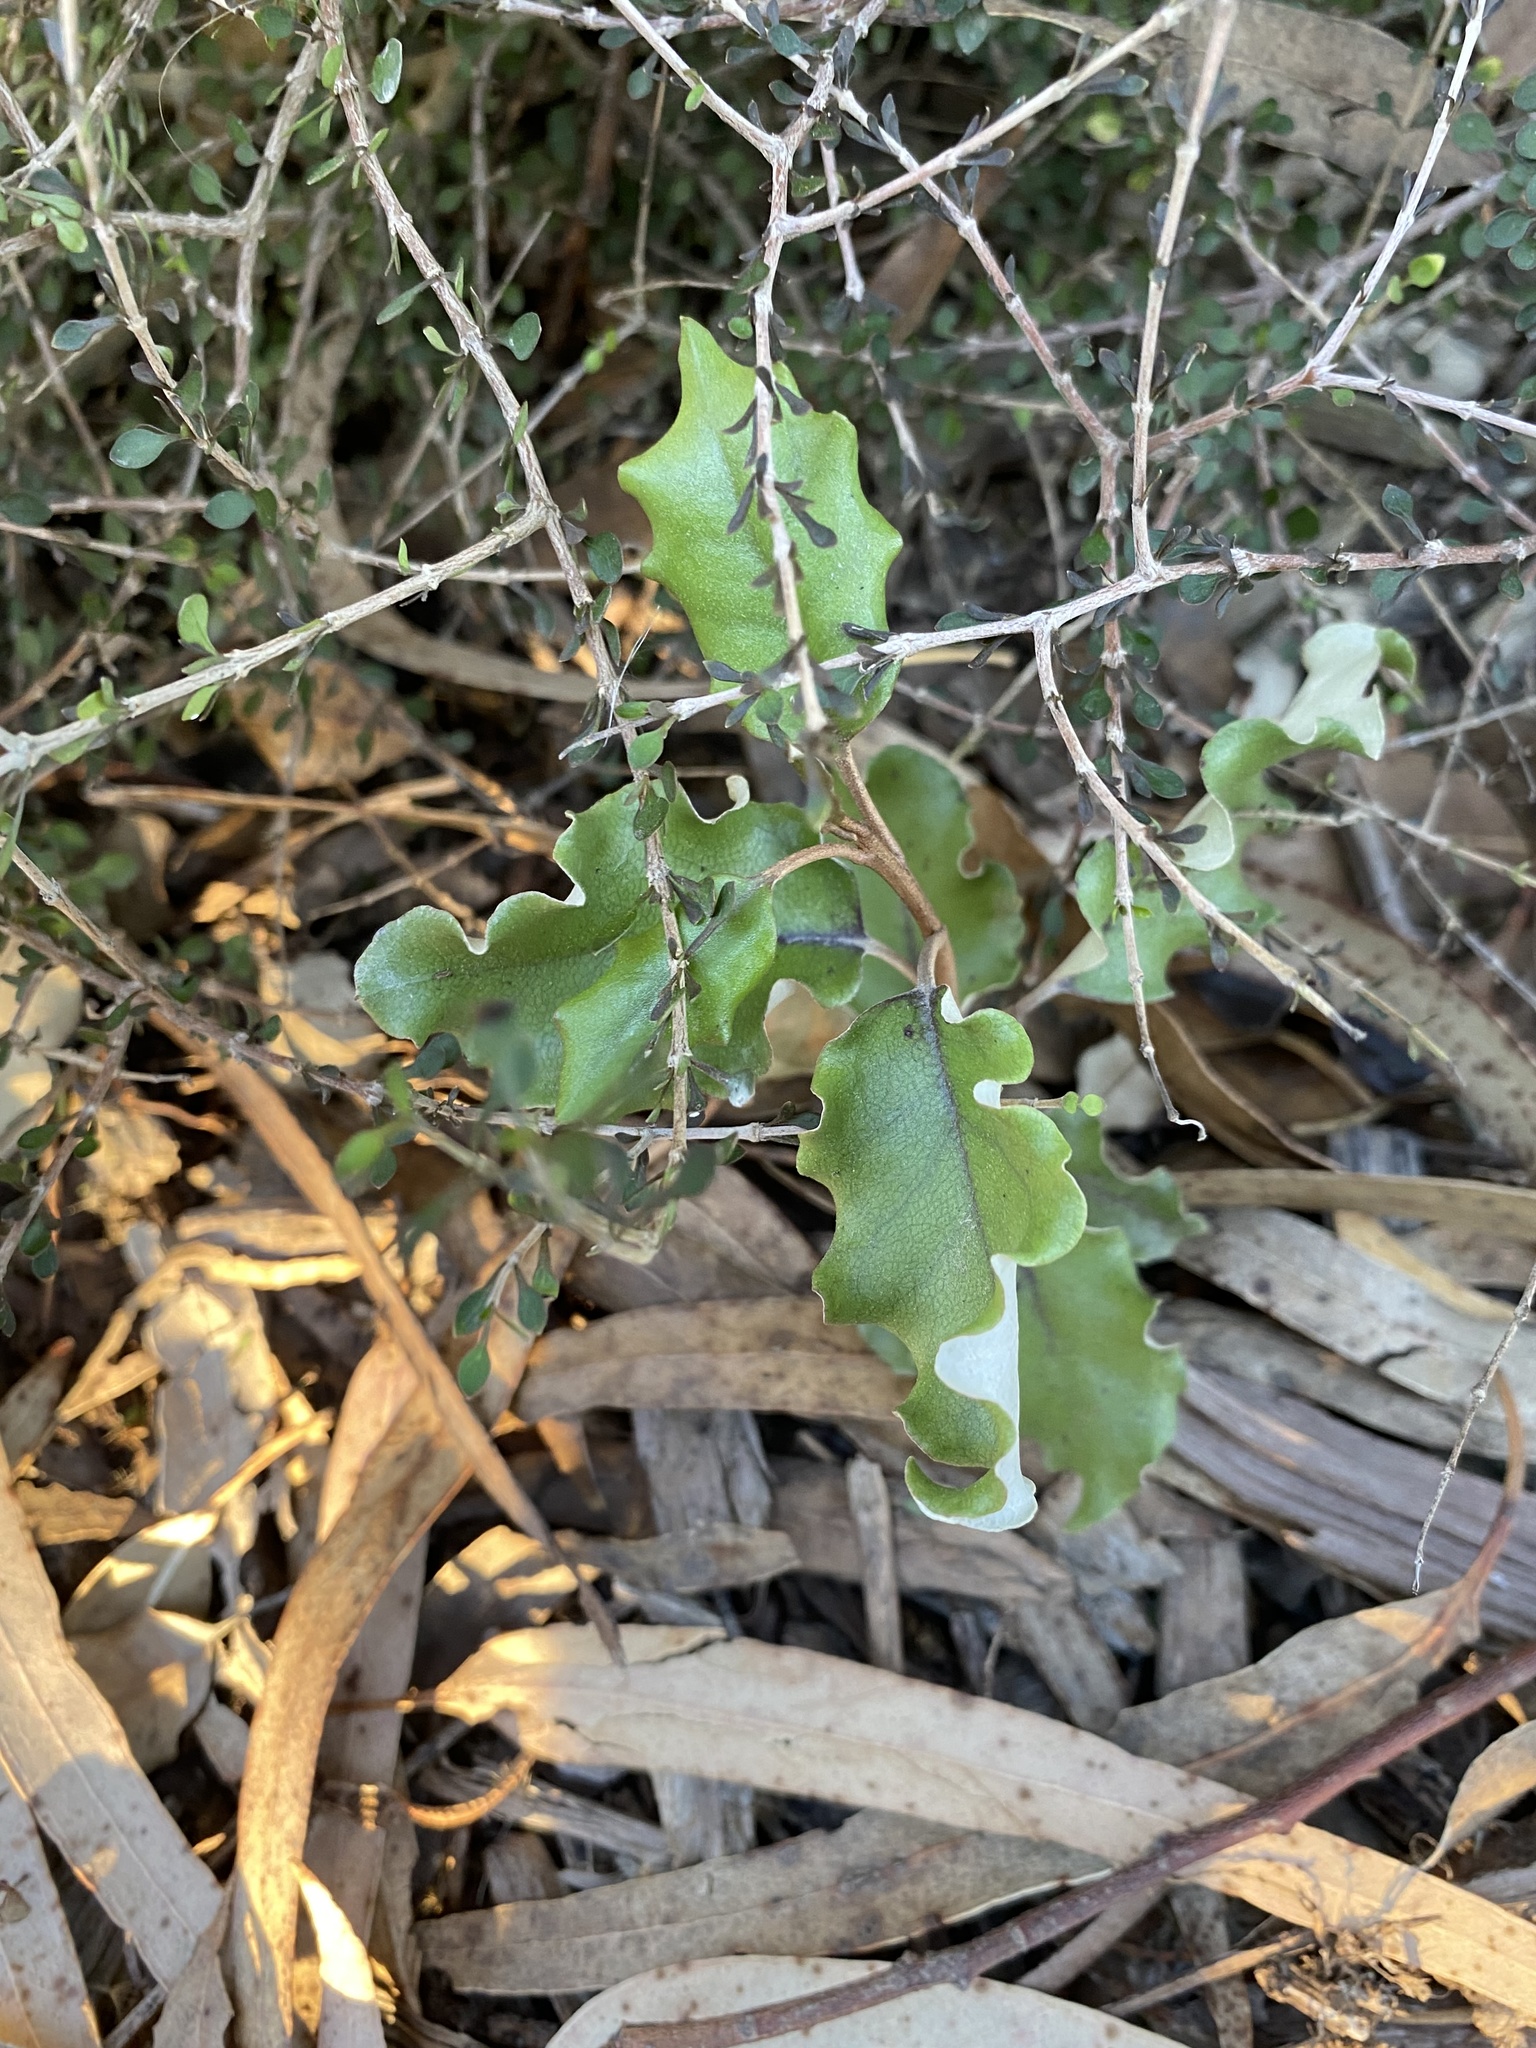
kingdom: Plantae
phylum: Tracheophyta
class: Magnoliopsida
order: Asterales
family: Asteraceae
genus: Olearia
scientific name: Olearia paniculata
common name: Akiraho
